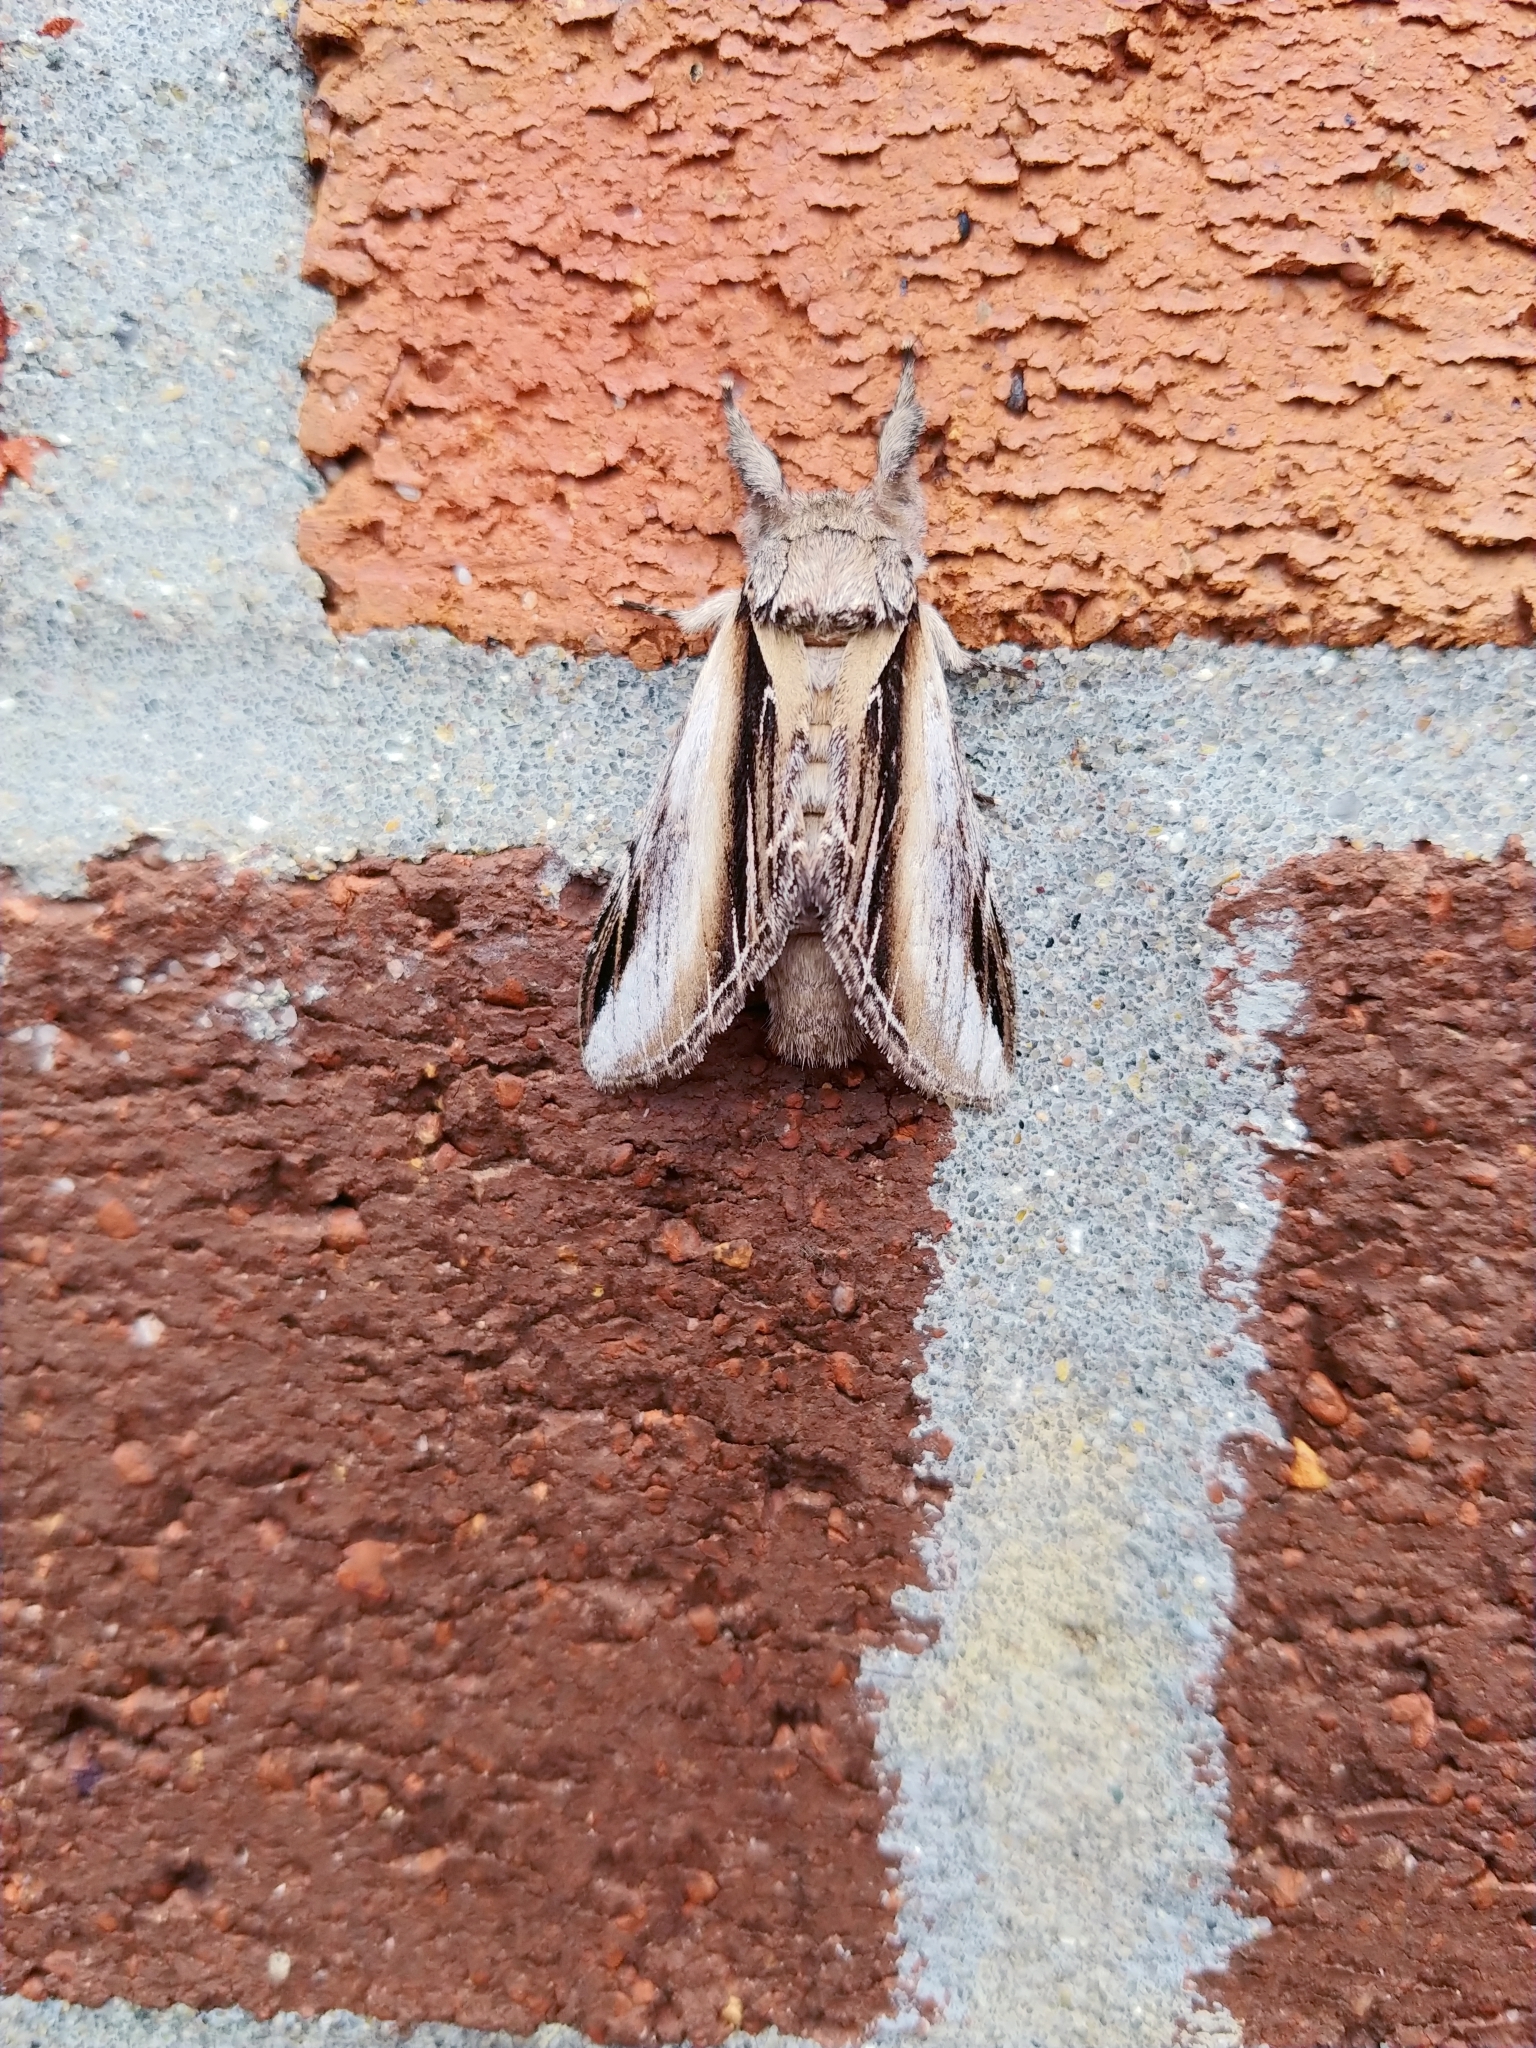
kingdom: Animalia
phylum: Arthropoda
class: Insecta
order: Lepidoptera
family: Notodontidae
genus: Pheosia
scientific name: Pheosia rimosa
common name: Black-rimmed prominent
